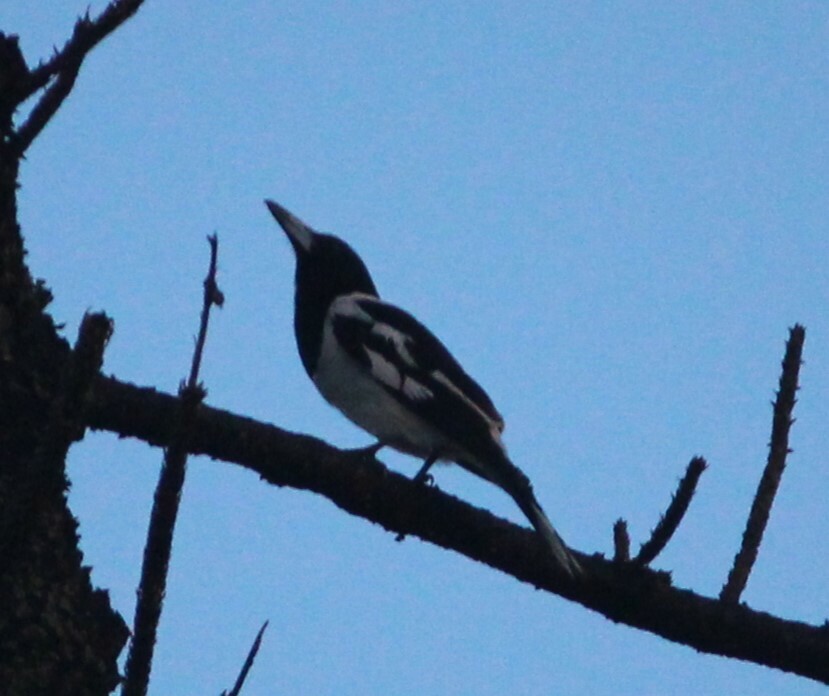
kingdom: Animalia
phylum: Chordata
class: Aves
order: Passeriformes
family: Cracticidae
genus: Cracticus
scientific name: Cracticus nigrogularis
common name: Pied butcherbird
